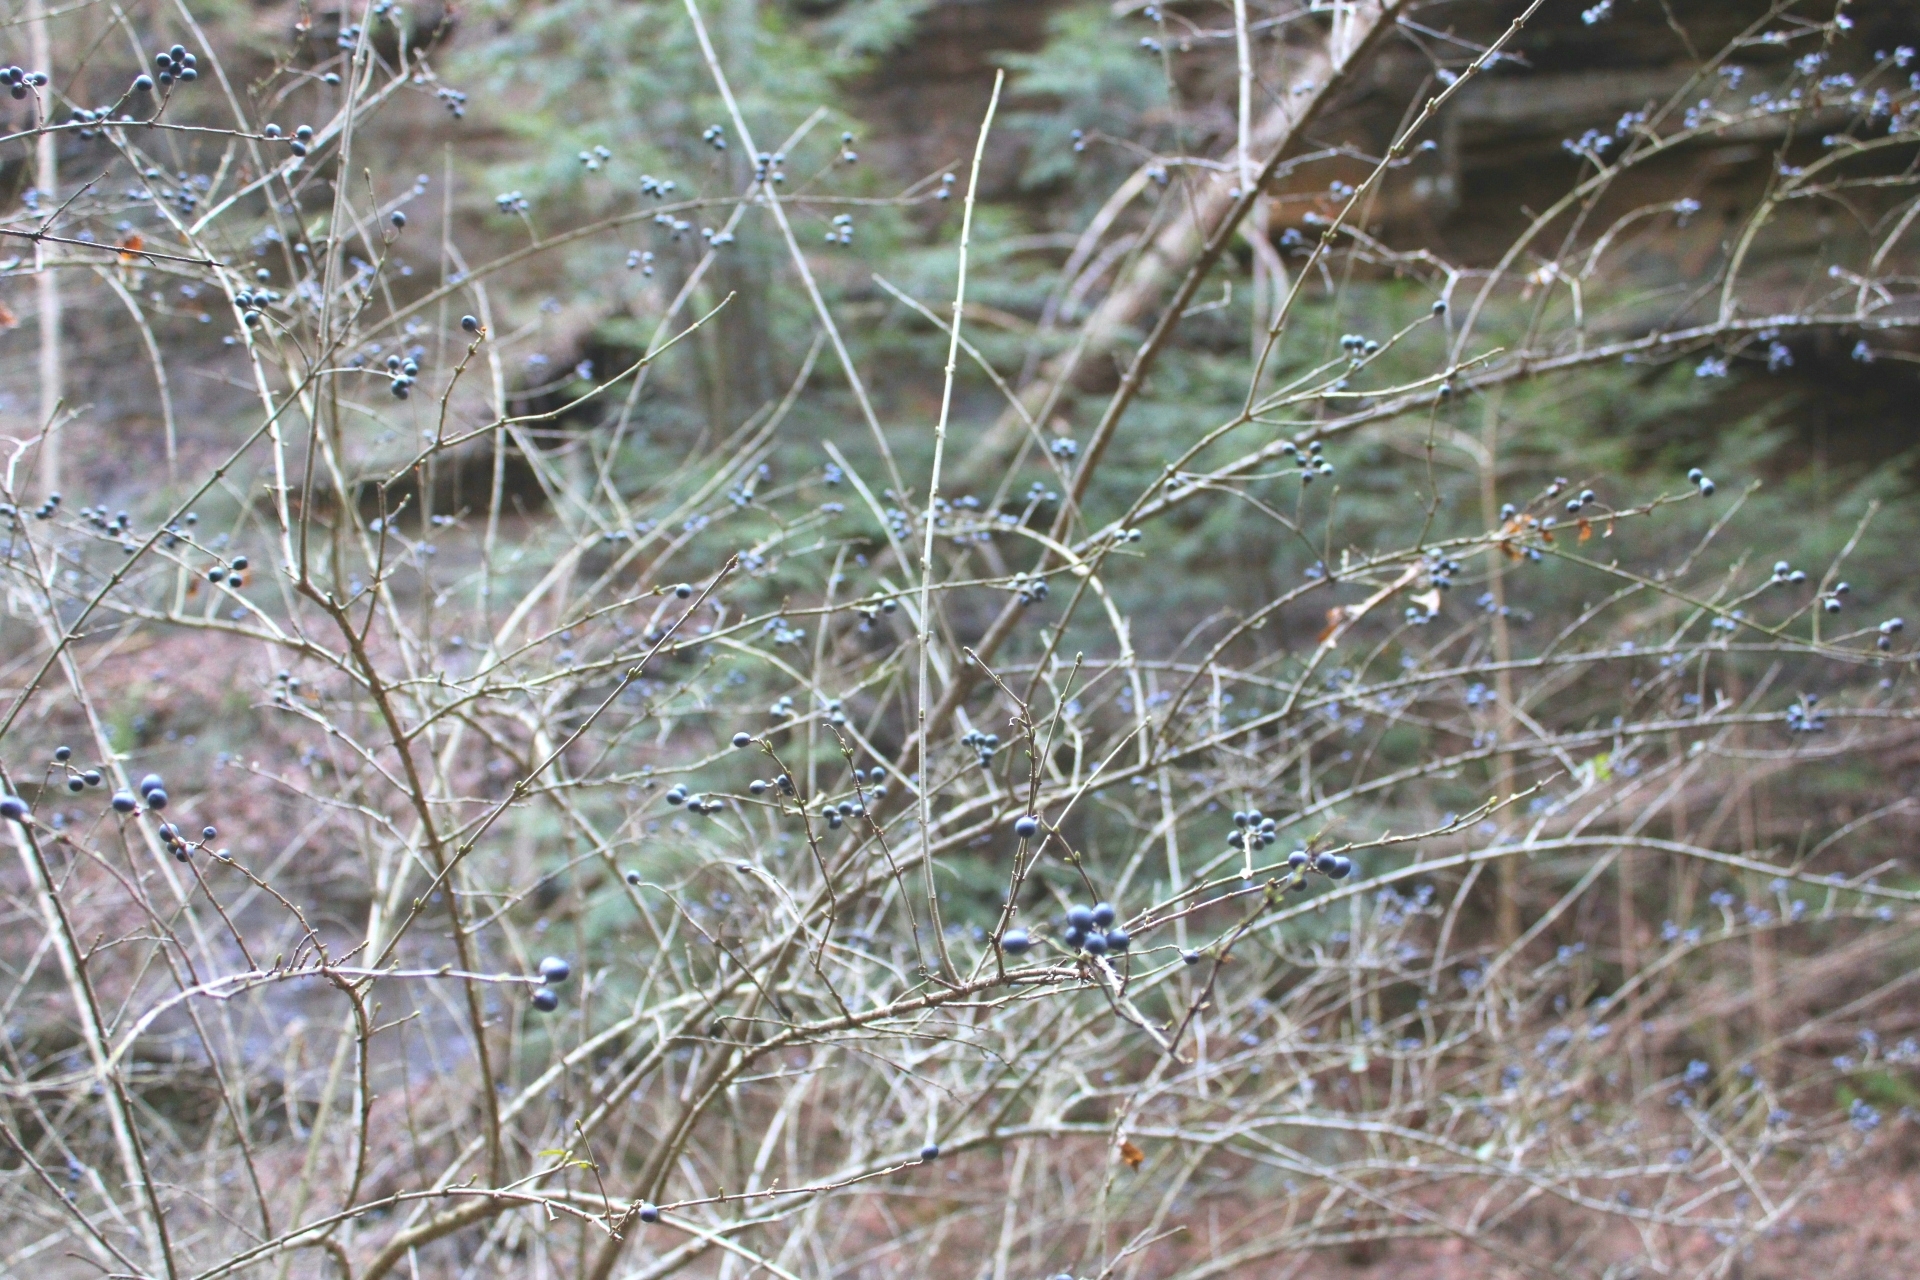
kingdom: Plantae
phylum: Tracheophyta
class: Magnoliopsida
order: Lamiales
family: Oleaceae
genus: Ligustrum
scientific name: Ligustrum obtusifolium
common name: Border privet
